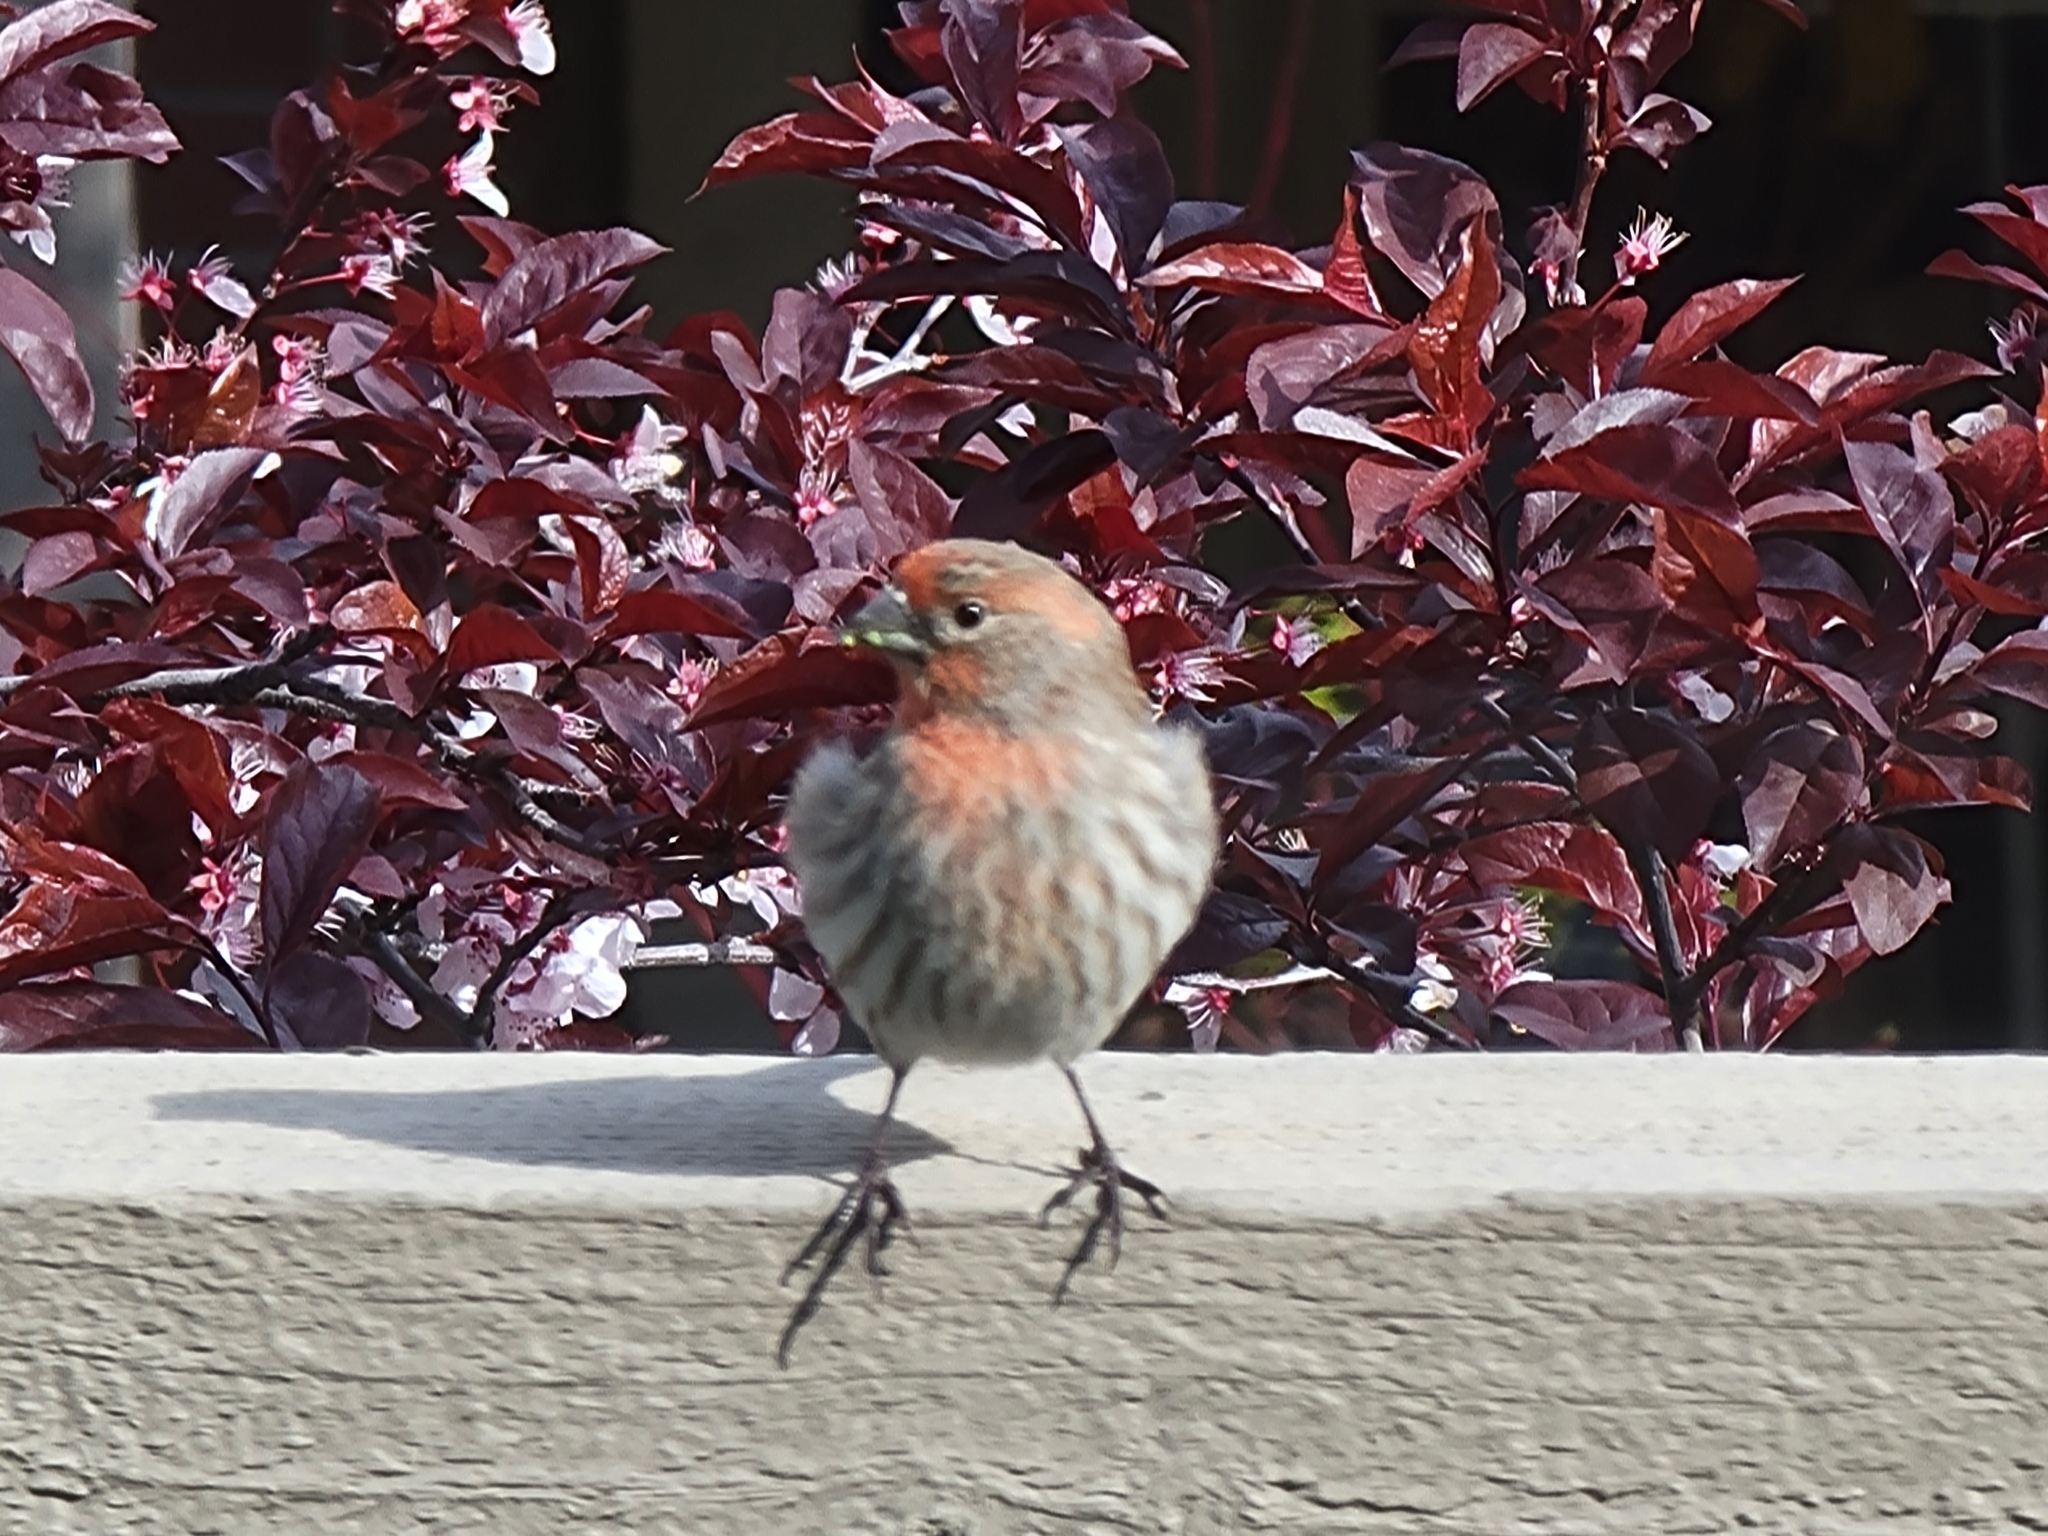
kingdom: Animalia
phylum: Chordata
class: Aves
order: Passeriformes
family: Fringillidae
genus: Haemorhous
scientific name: Haemorhous mexicanus
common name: House finch
